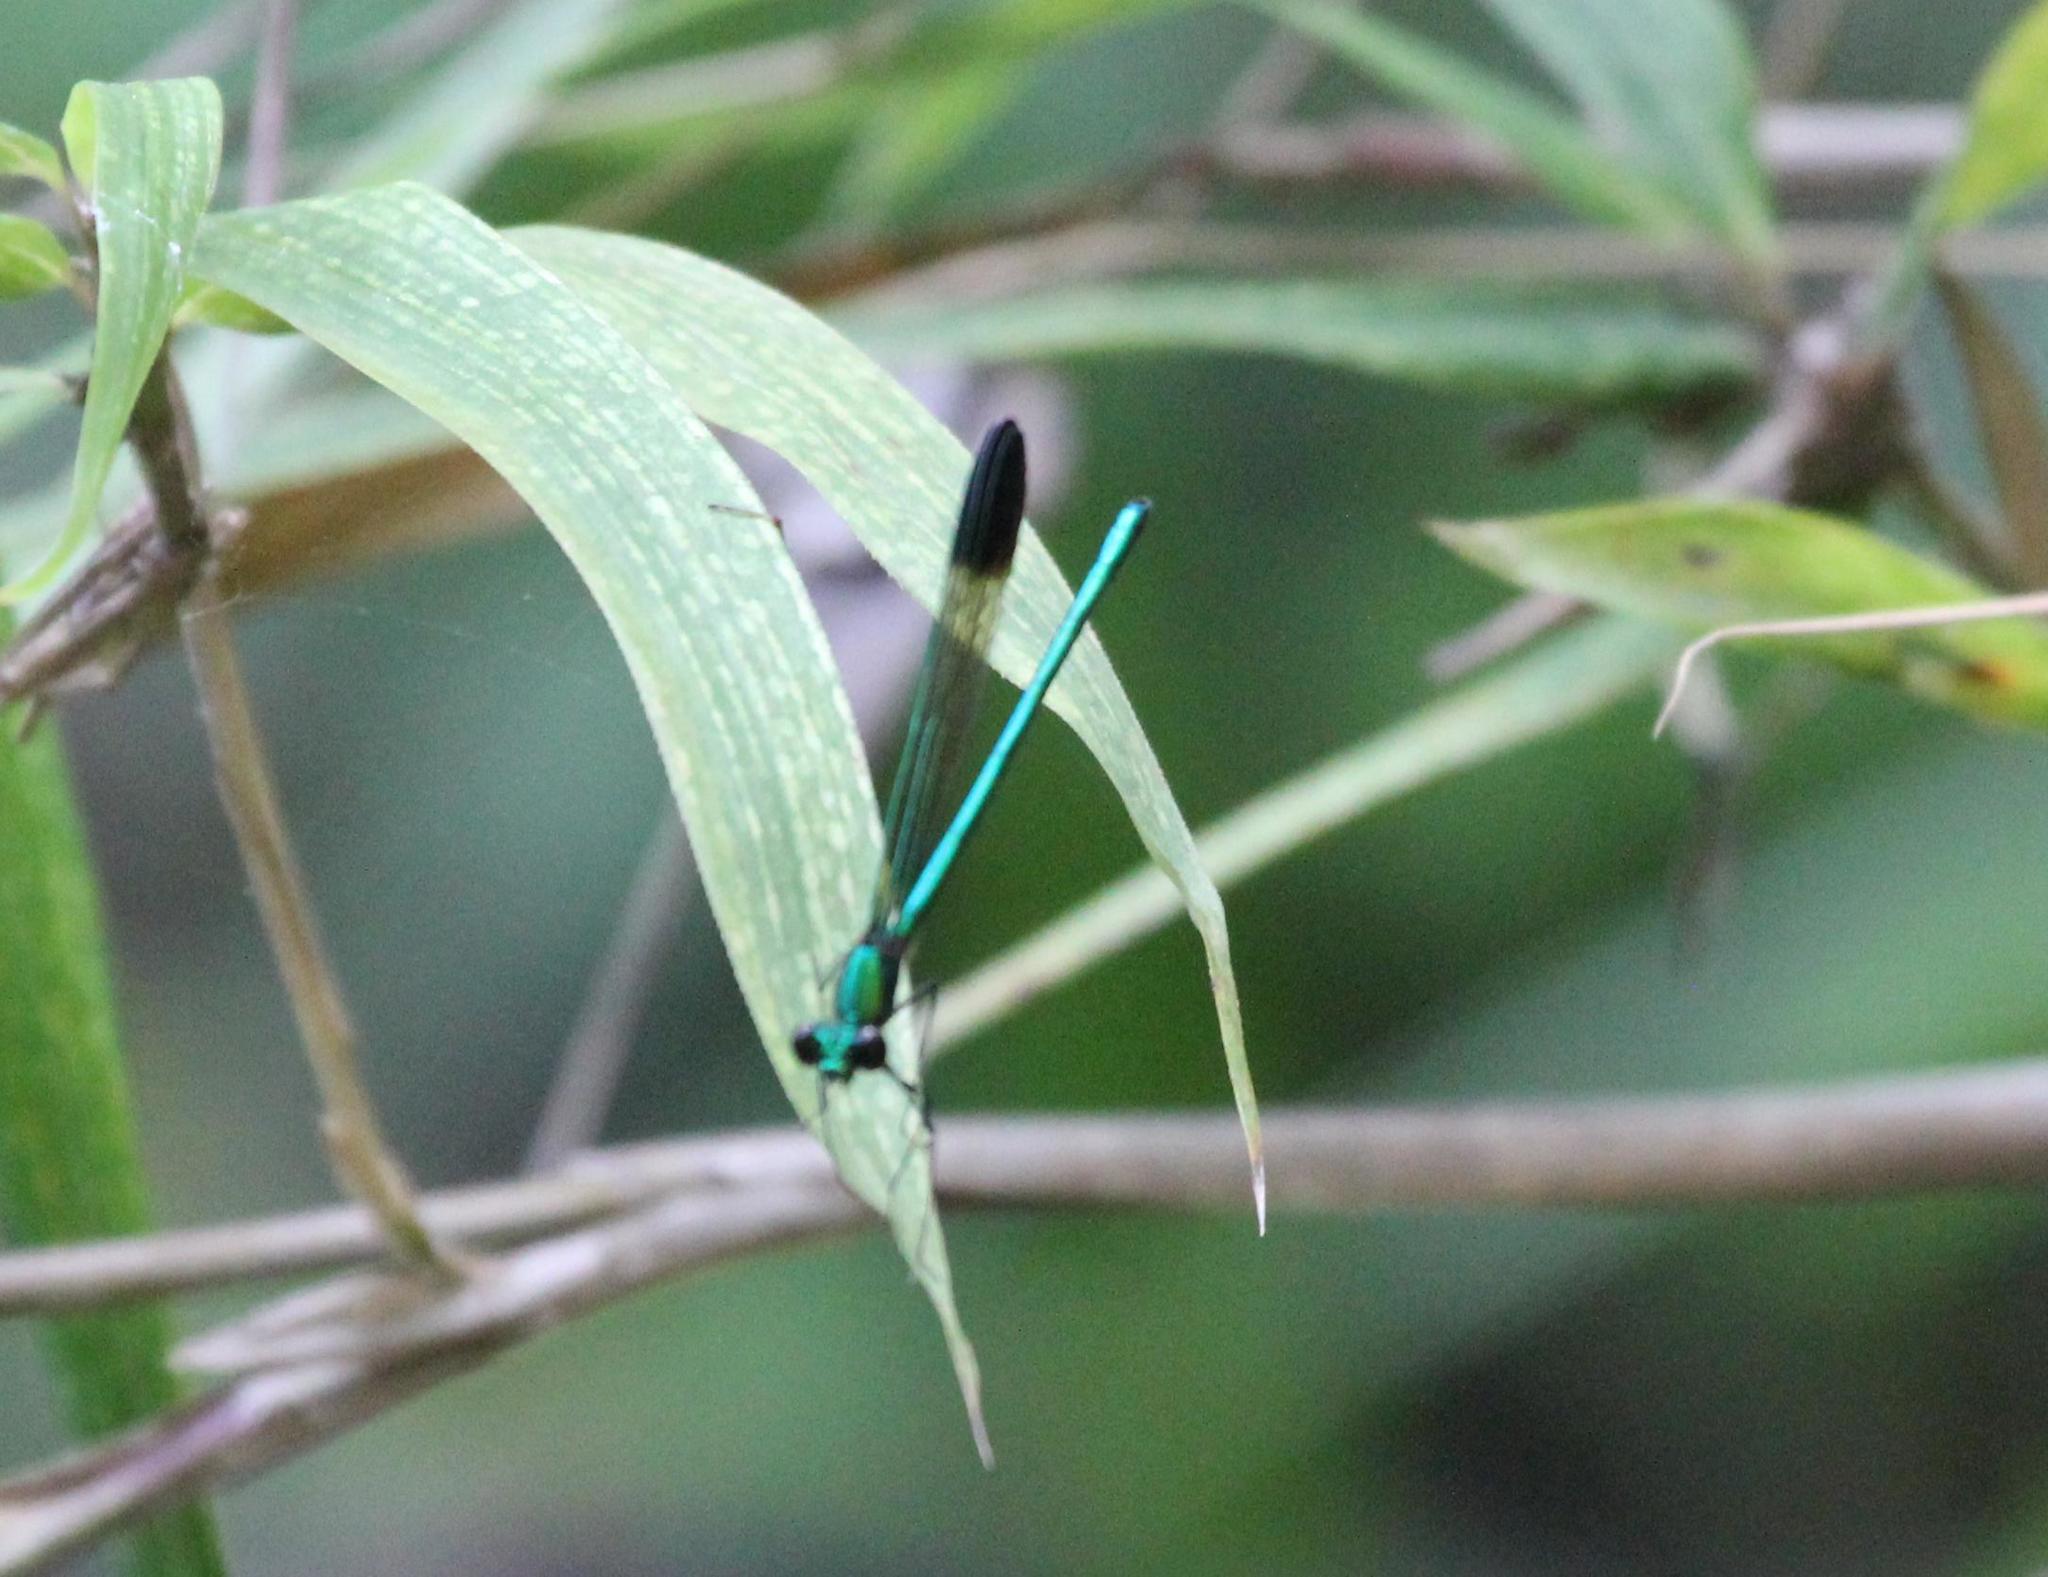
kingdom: Animalia
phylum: Arthropoda
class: Insecta
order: Odonata
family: Calopterygidae
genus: Calopteryx
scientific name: Calopteryx dimidiata
